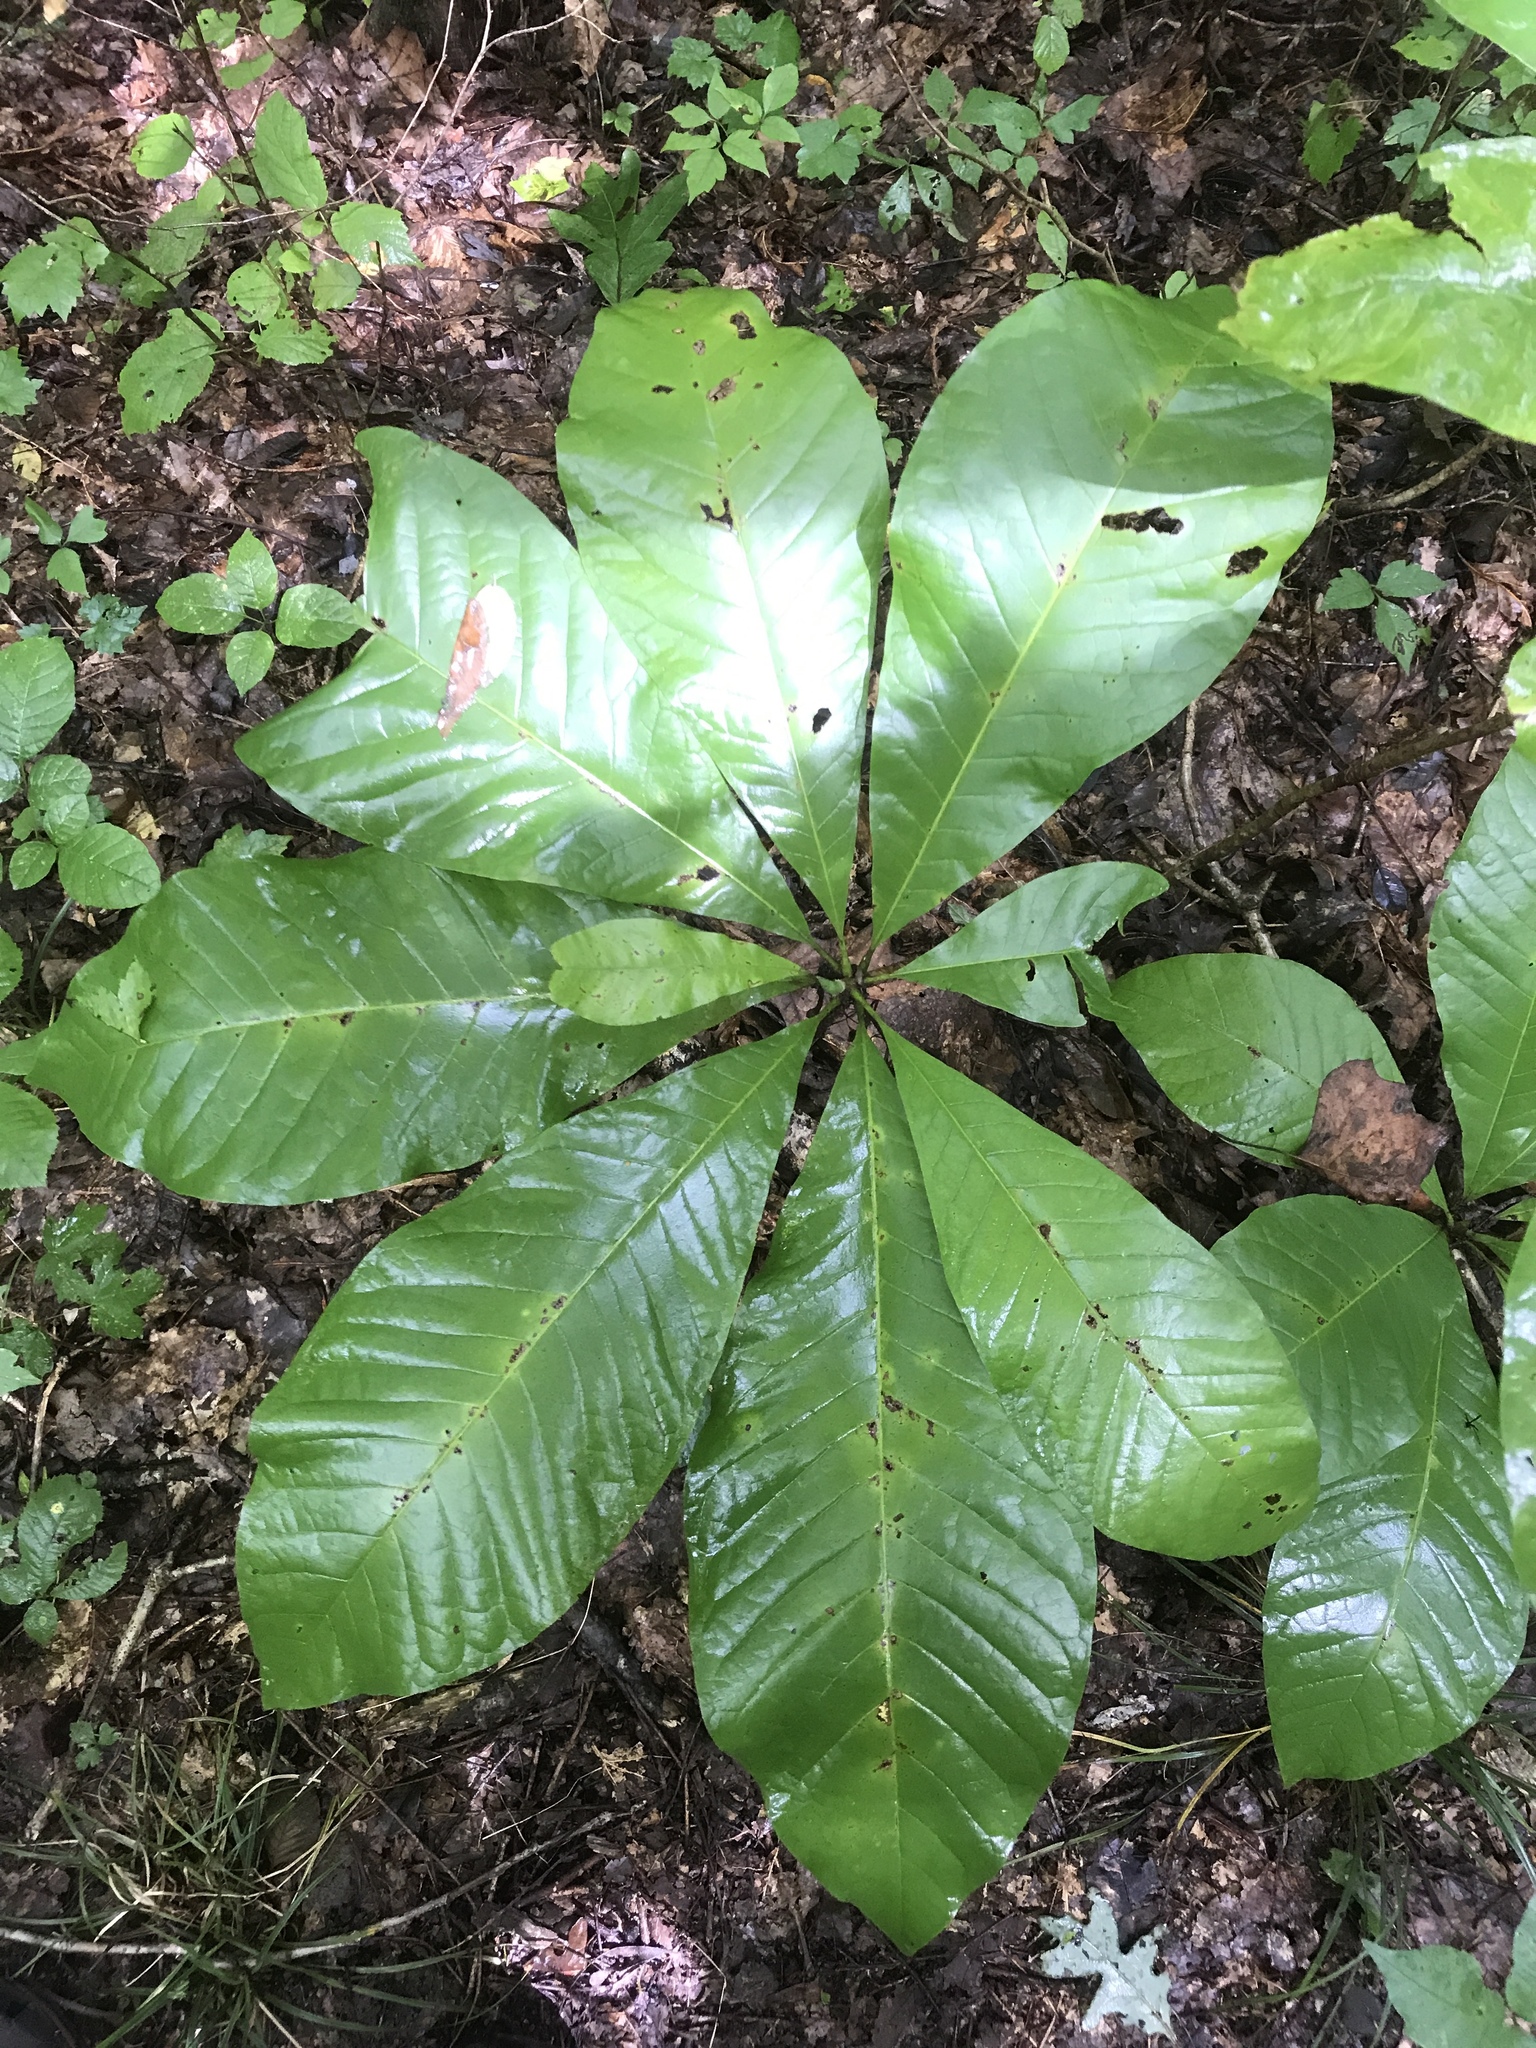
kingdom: Plantae
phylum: Tracheophyta
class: Magnoliopsida
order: Magnoliales
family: Magnoliaceae
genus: Magnolia
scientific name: Magnolia tripetala
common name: Umbrella magnolia
